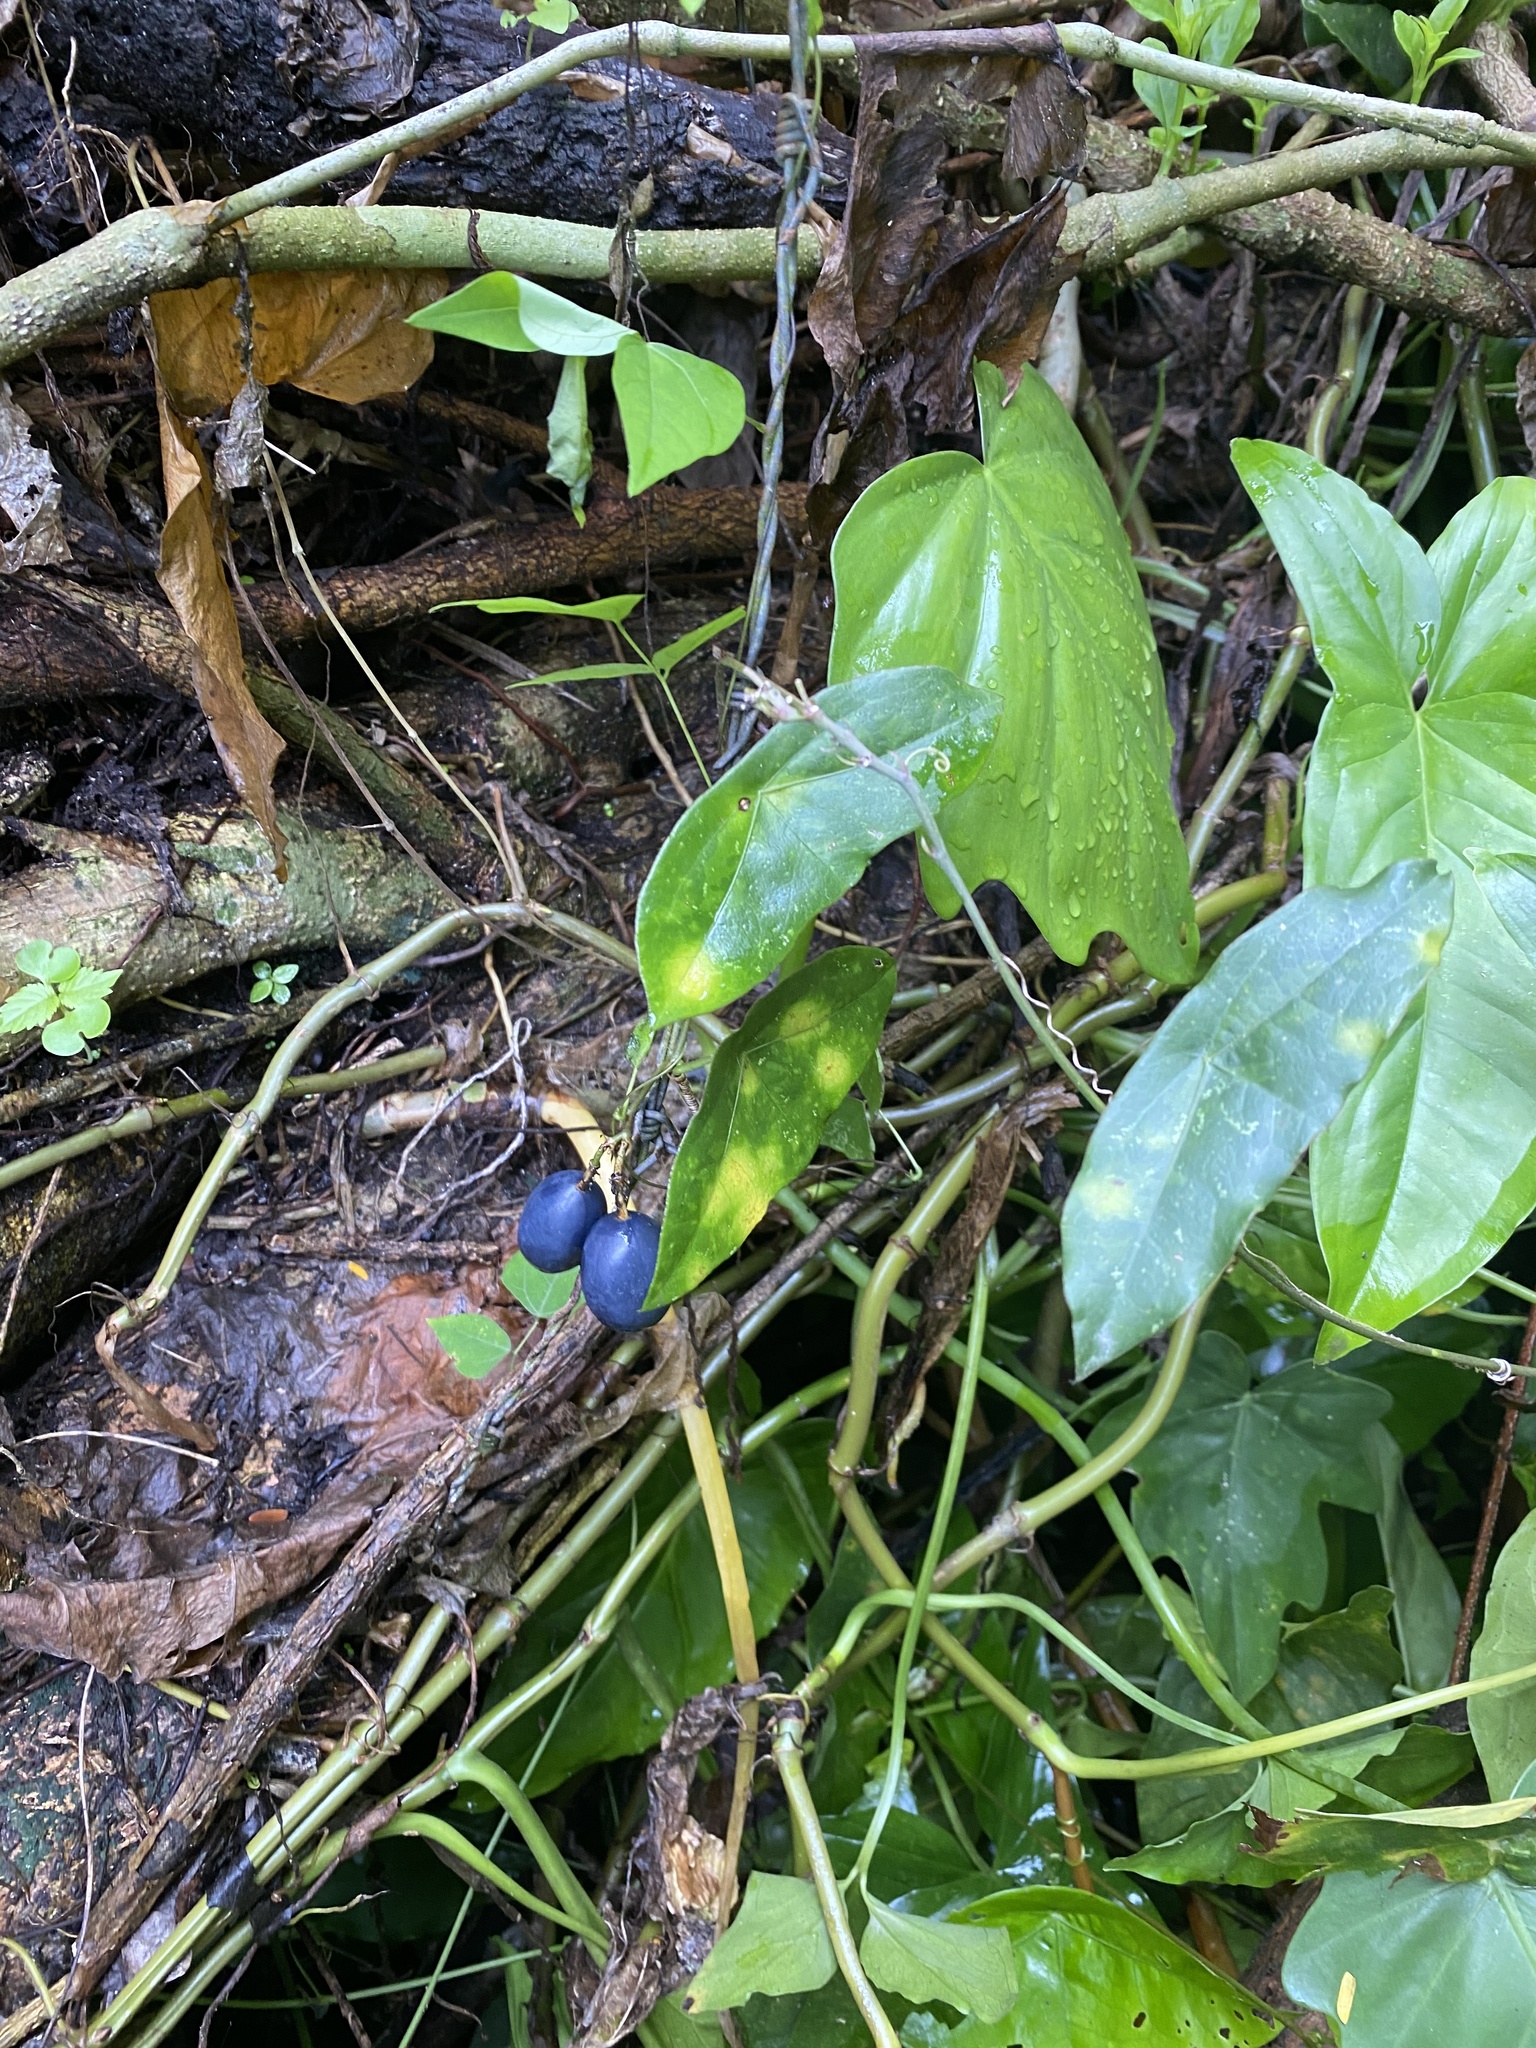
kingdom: Plantae
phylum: Tracheophyta
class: Magnoliopsida
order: Malpighiales
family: Passifloraceae
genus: Passiflora
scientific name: Passiflora sexocellata
